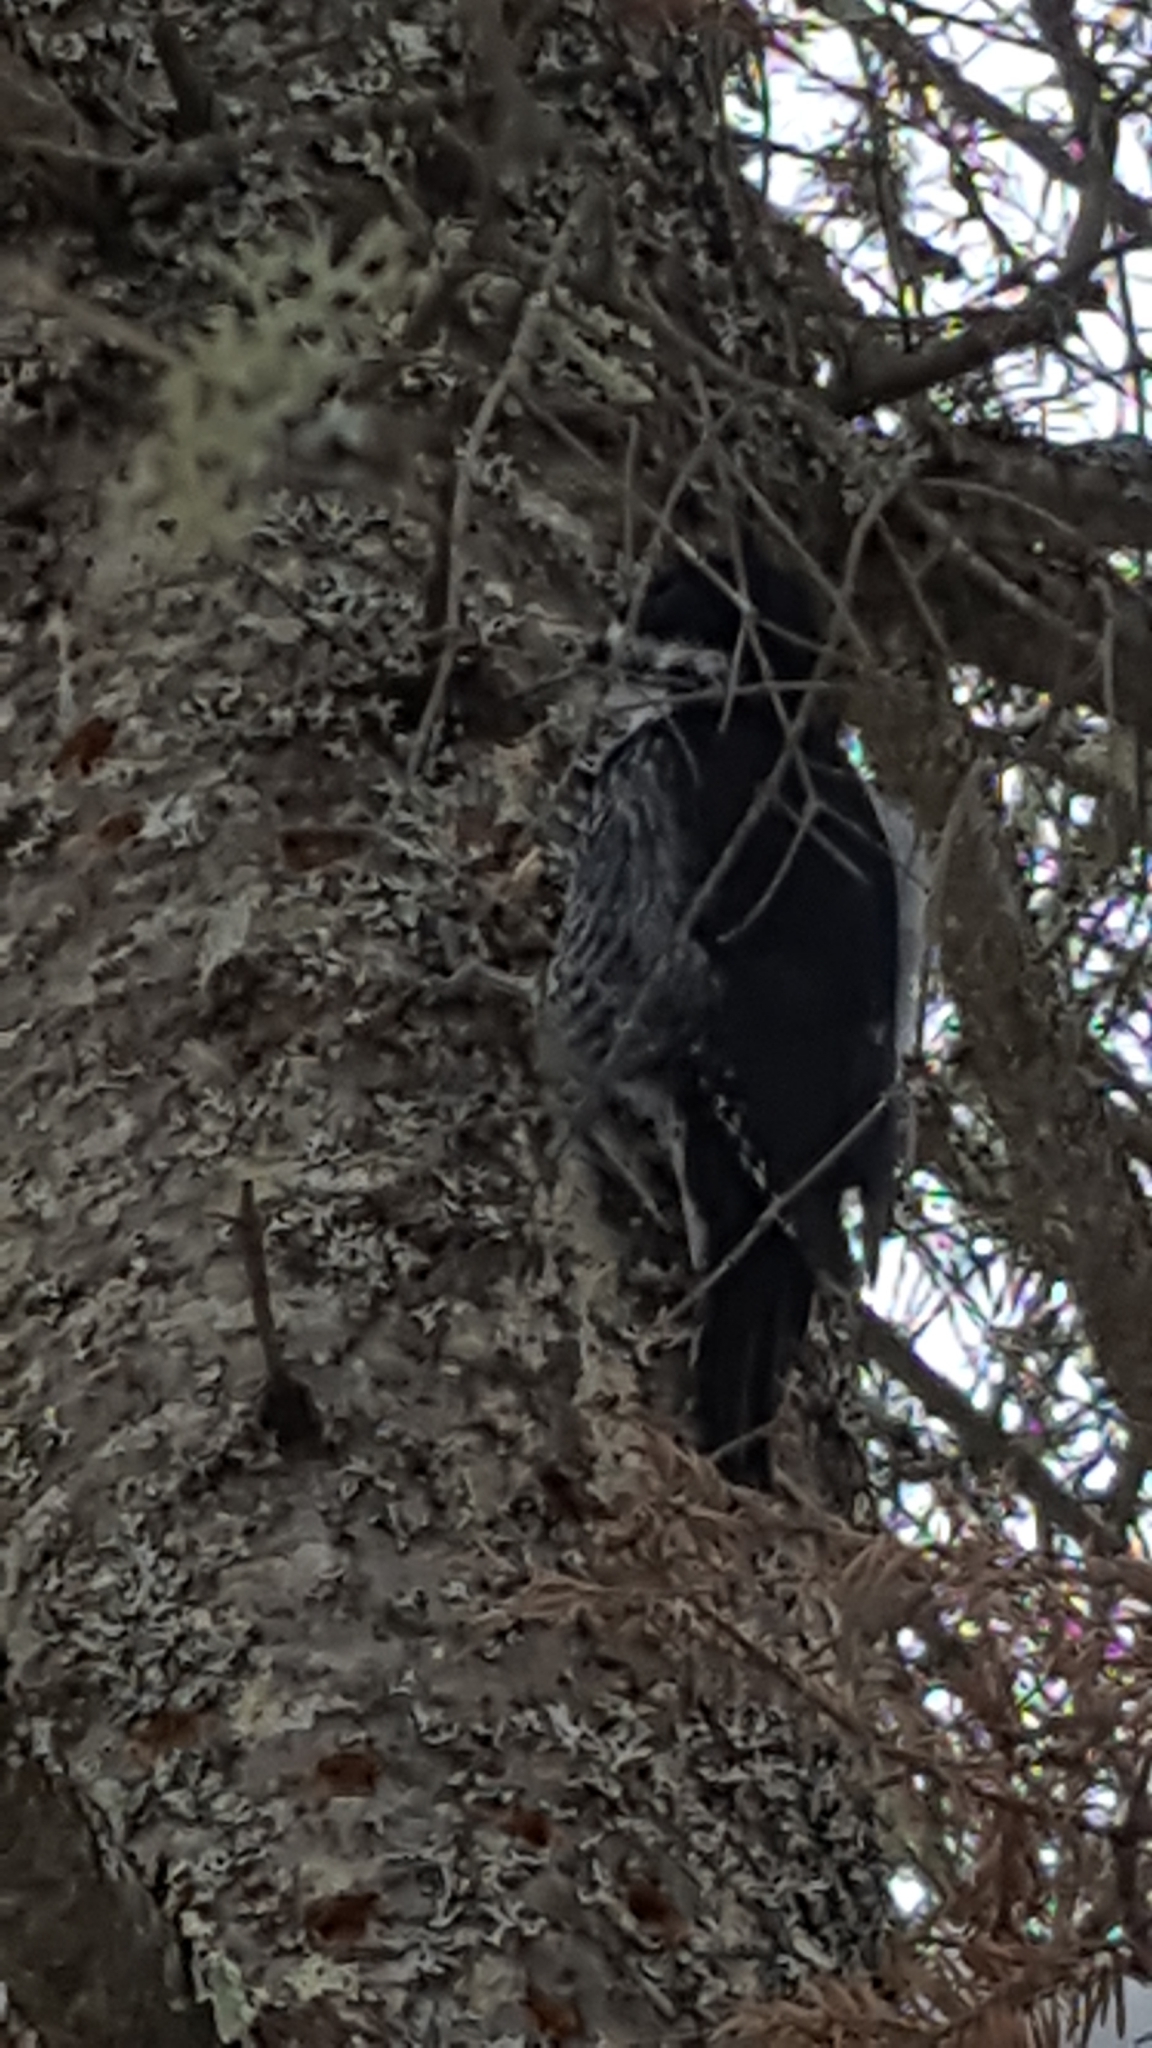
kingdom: Animalia
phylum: Chordata
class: Aves
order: Piciformes
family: Picidae
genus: Picoides
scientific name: Picoides arcticus
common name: Black-backed woodpecker
